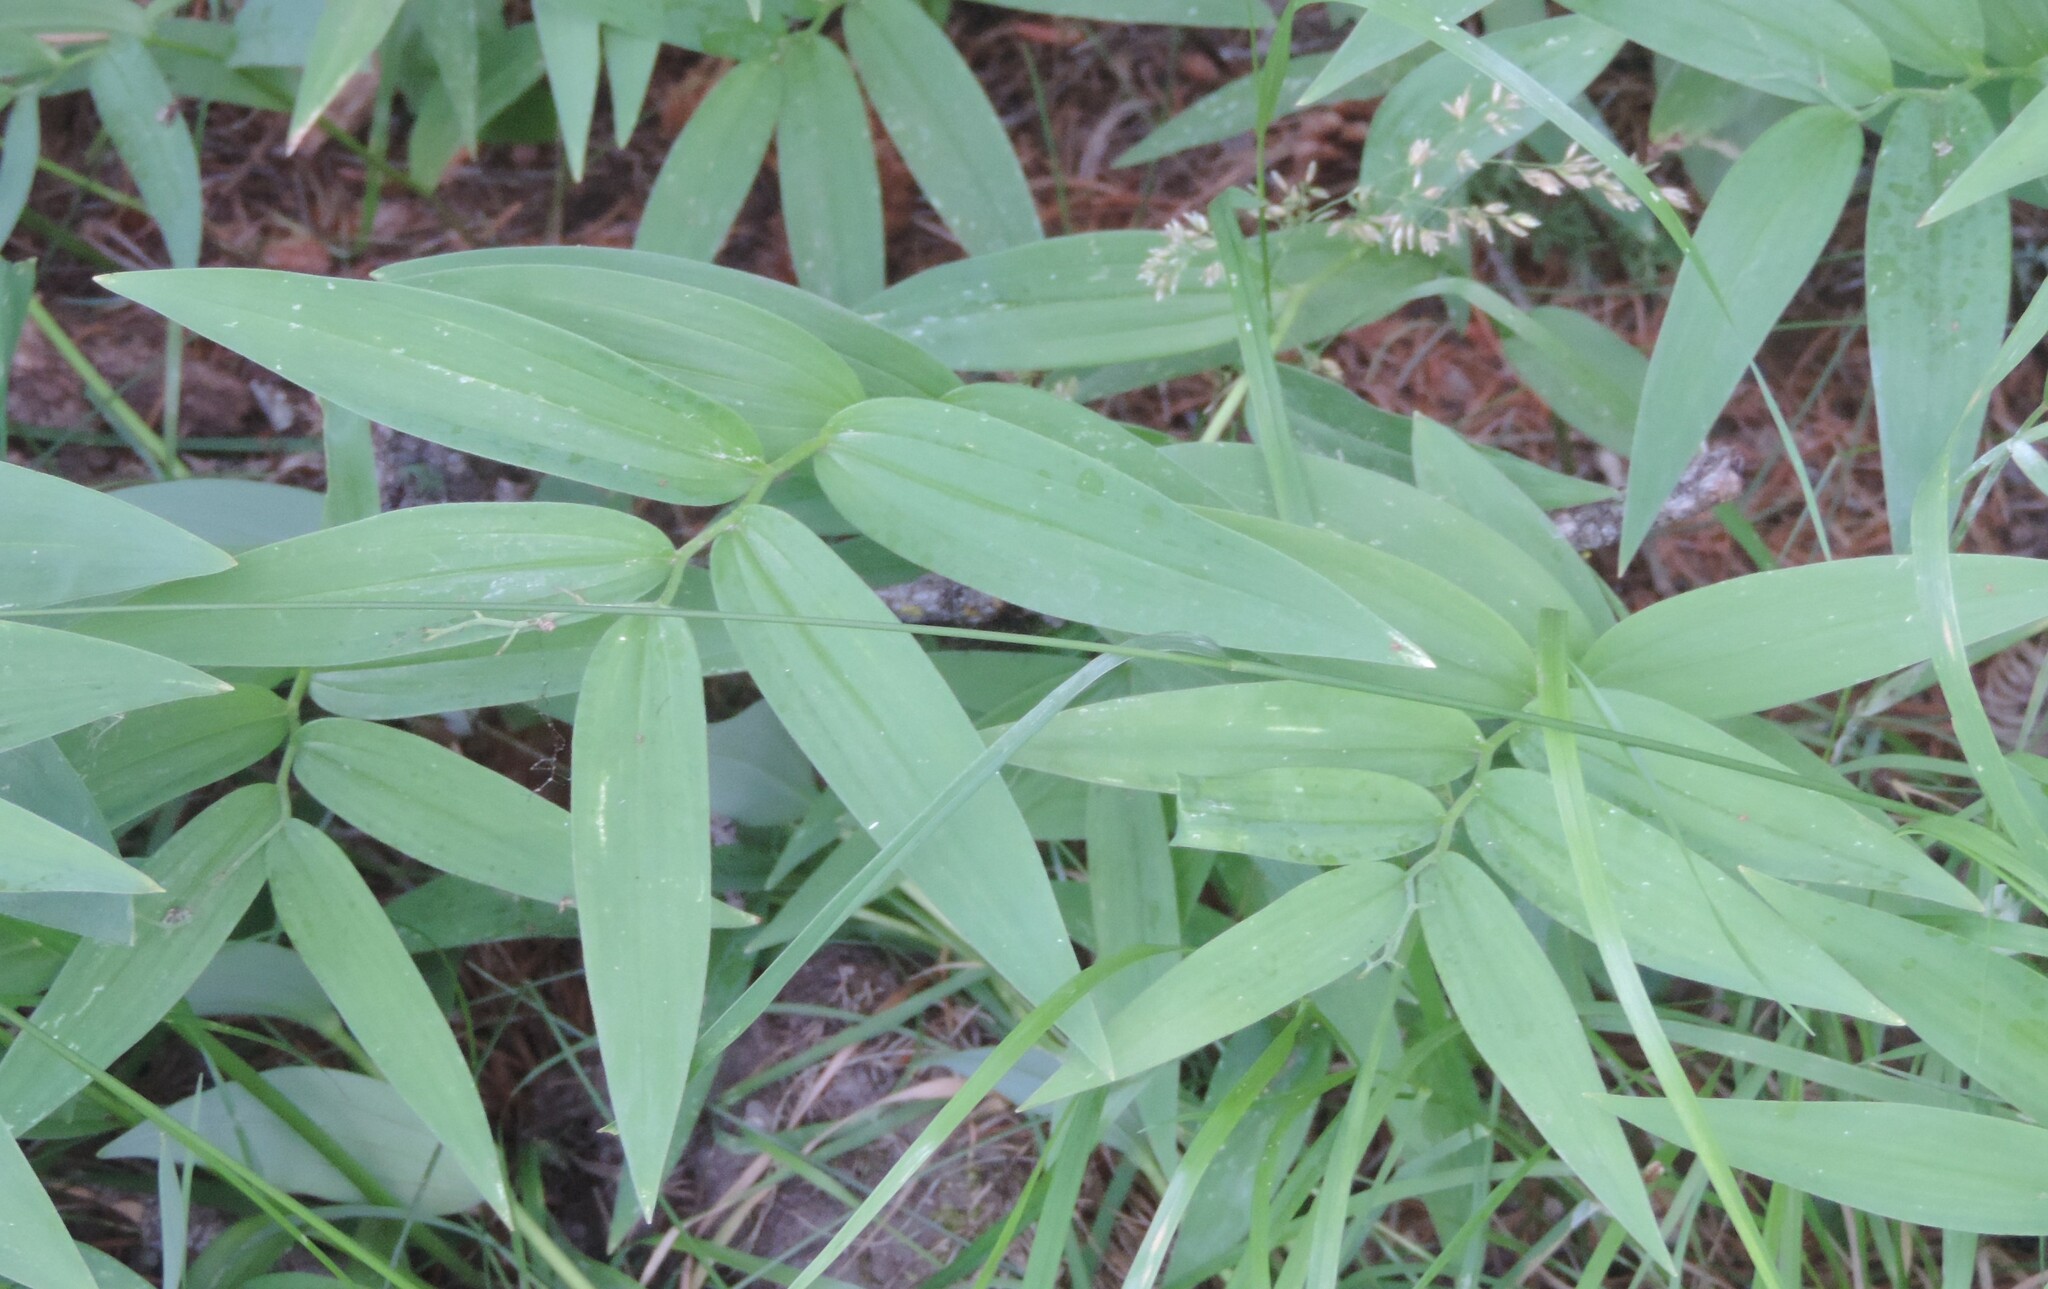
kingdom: Plantae
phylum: Tracheophyta
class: Liliopsida
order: Asparagales
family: Asparagaceae
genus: Maianthemum
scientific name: Maianthemum stellatum
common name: Little false solomon's seal
